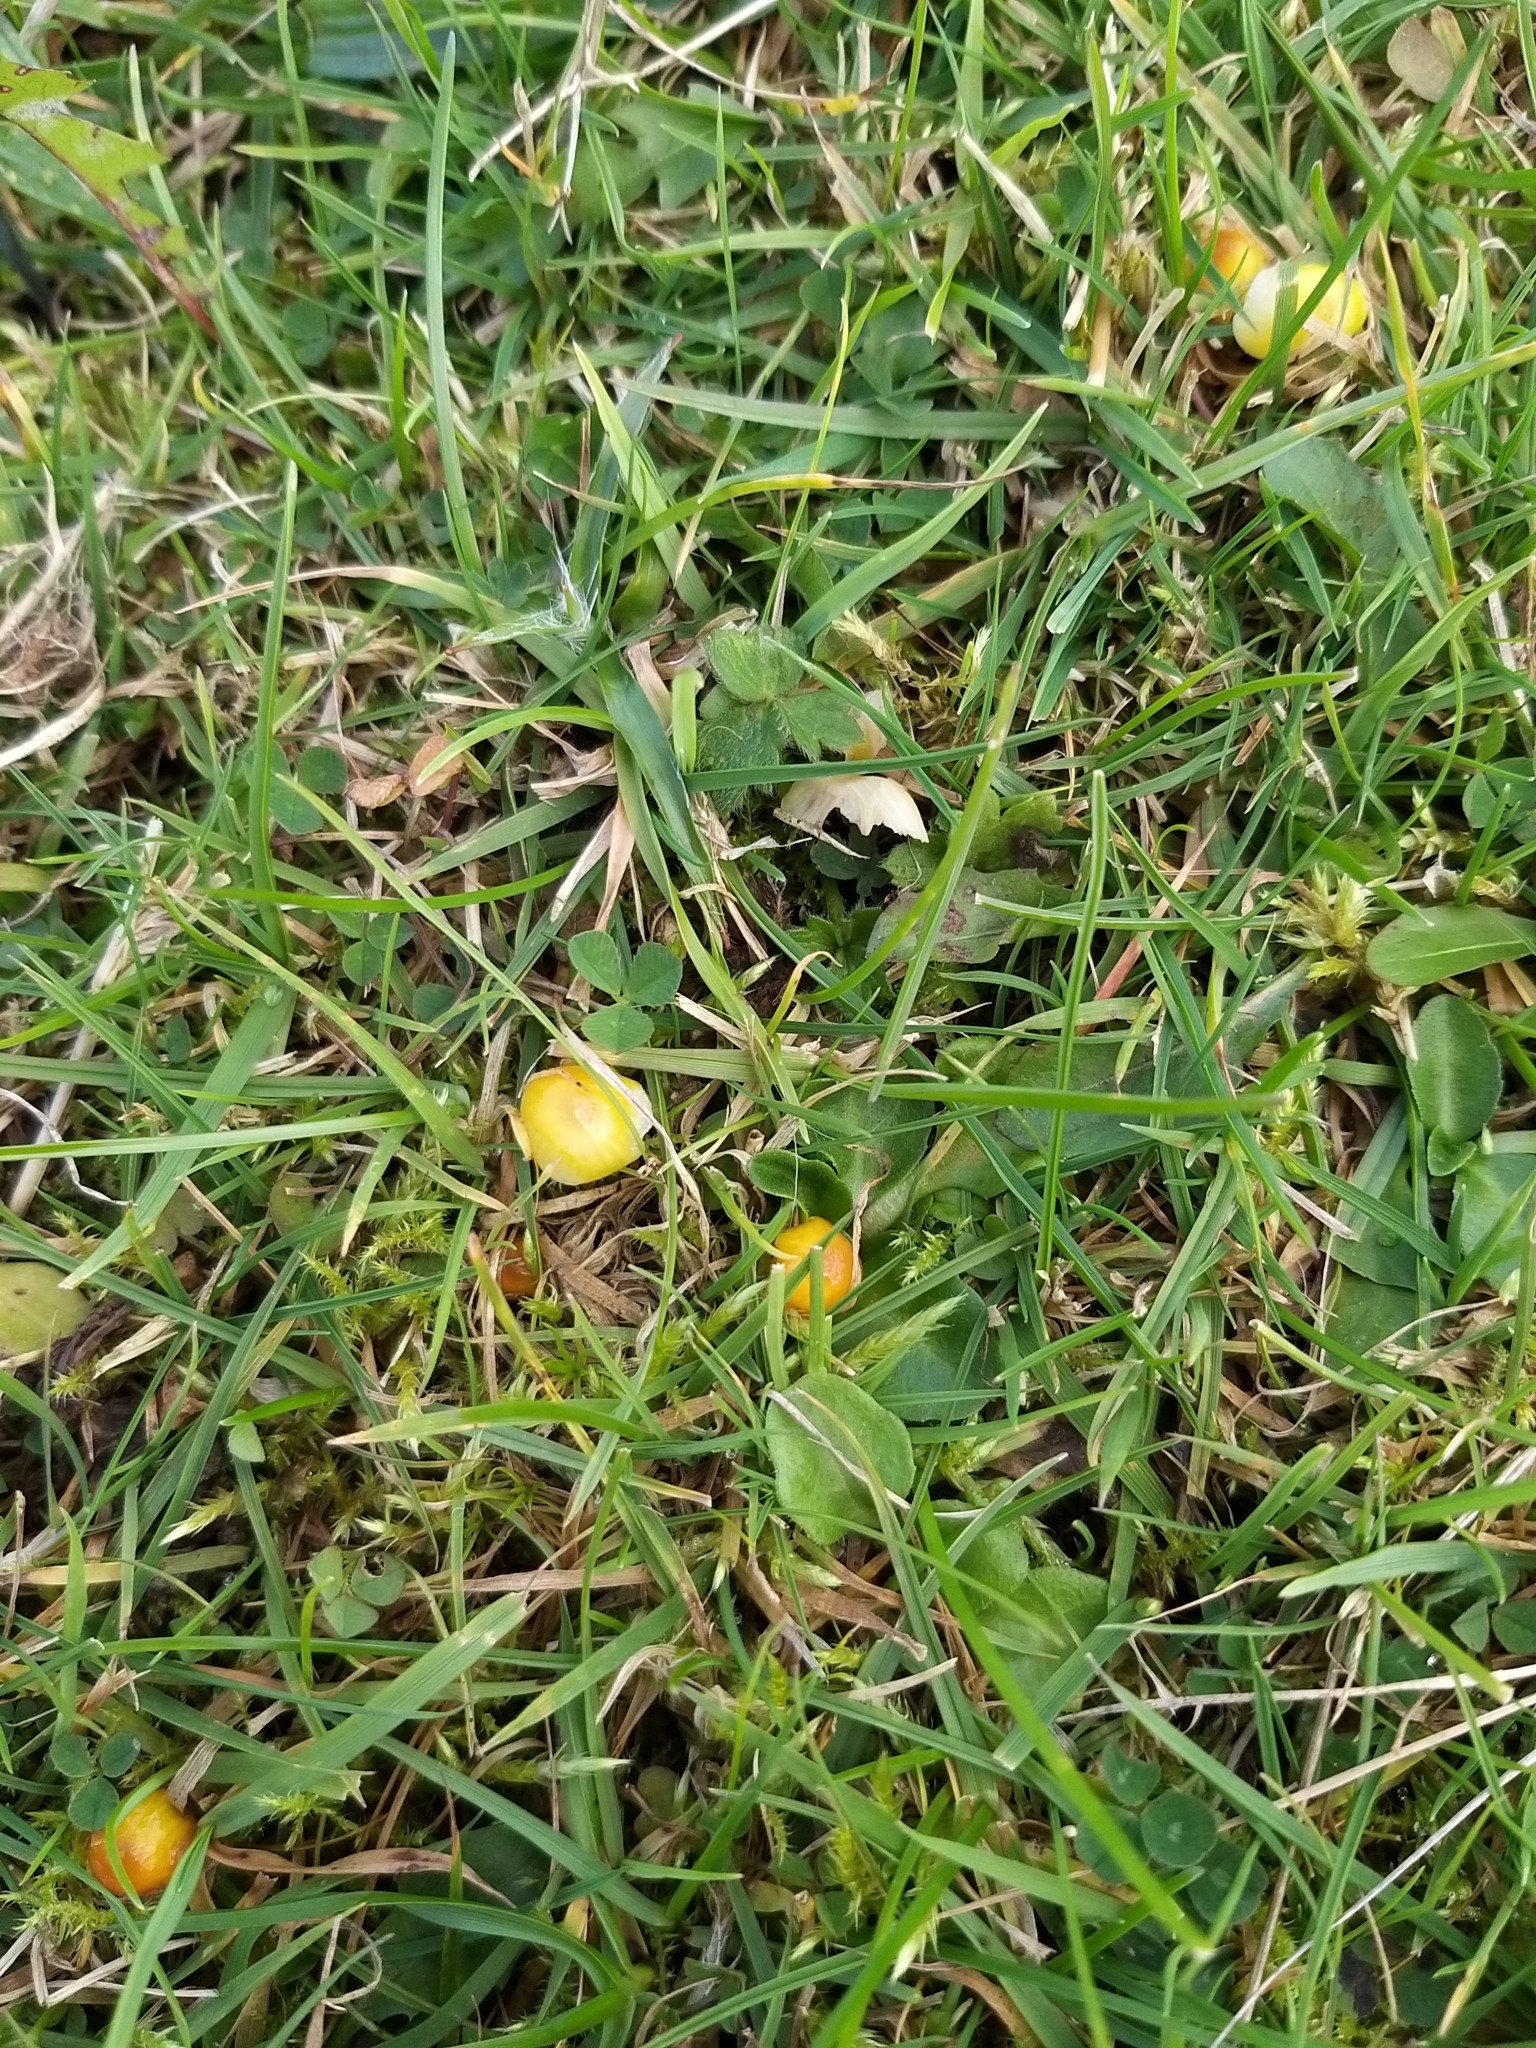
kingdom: Fungi
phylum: Basidiomycota
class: Agaricomycetes
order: Agaricales
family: Hygrophoraceae
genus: Hygrocybe
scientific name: Hygrocybe glutinipes
